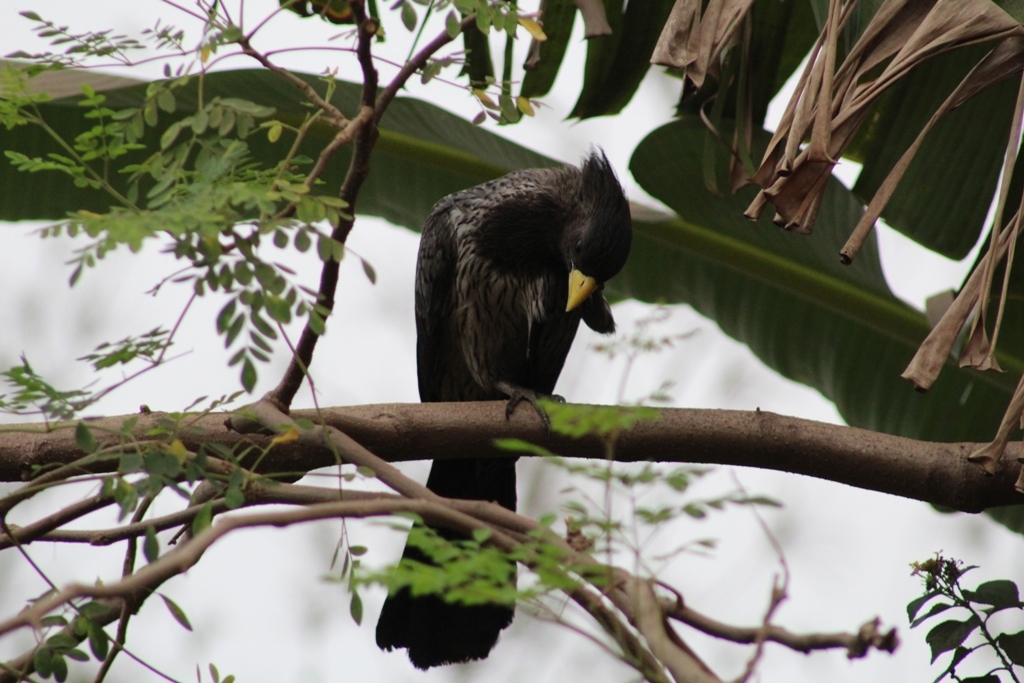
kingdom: Animalia
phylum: Chordata
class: Aves
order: Musophagiformes
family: Musophagidae
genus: Crinifer
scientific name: Crinifer piscator
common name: Western plantain-eater
